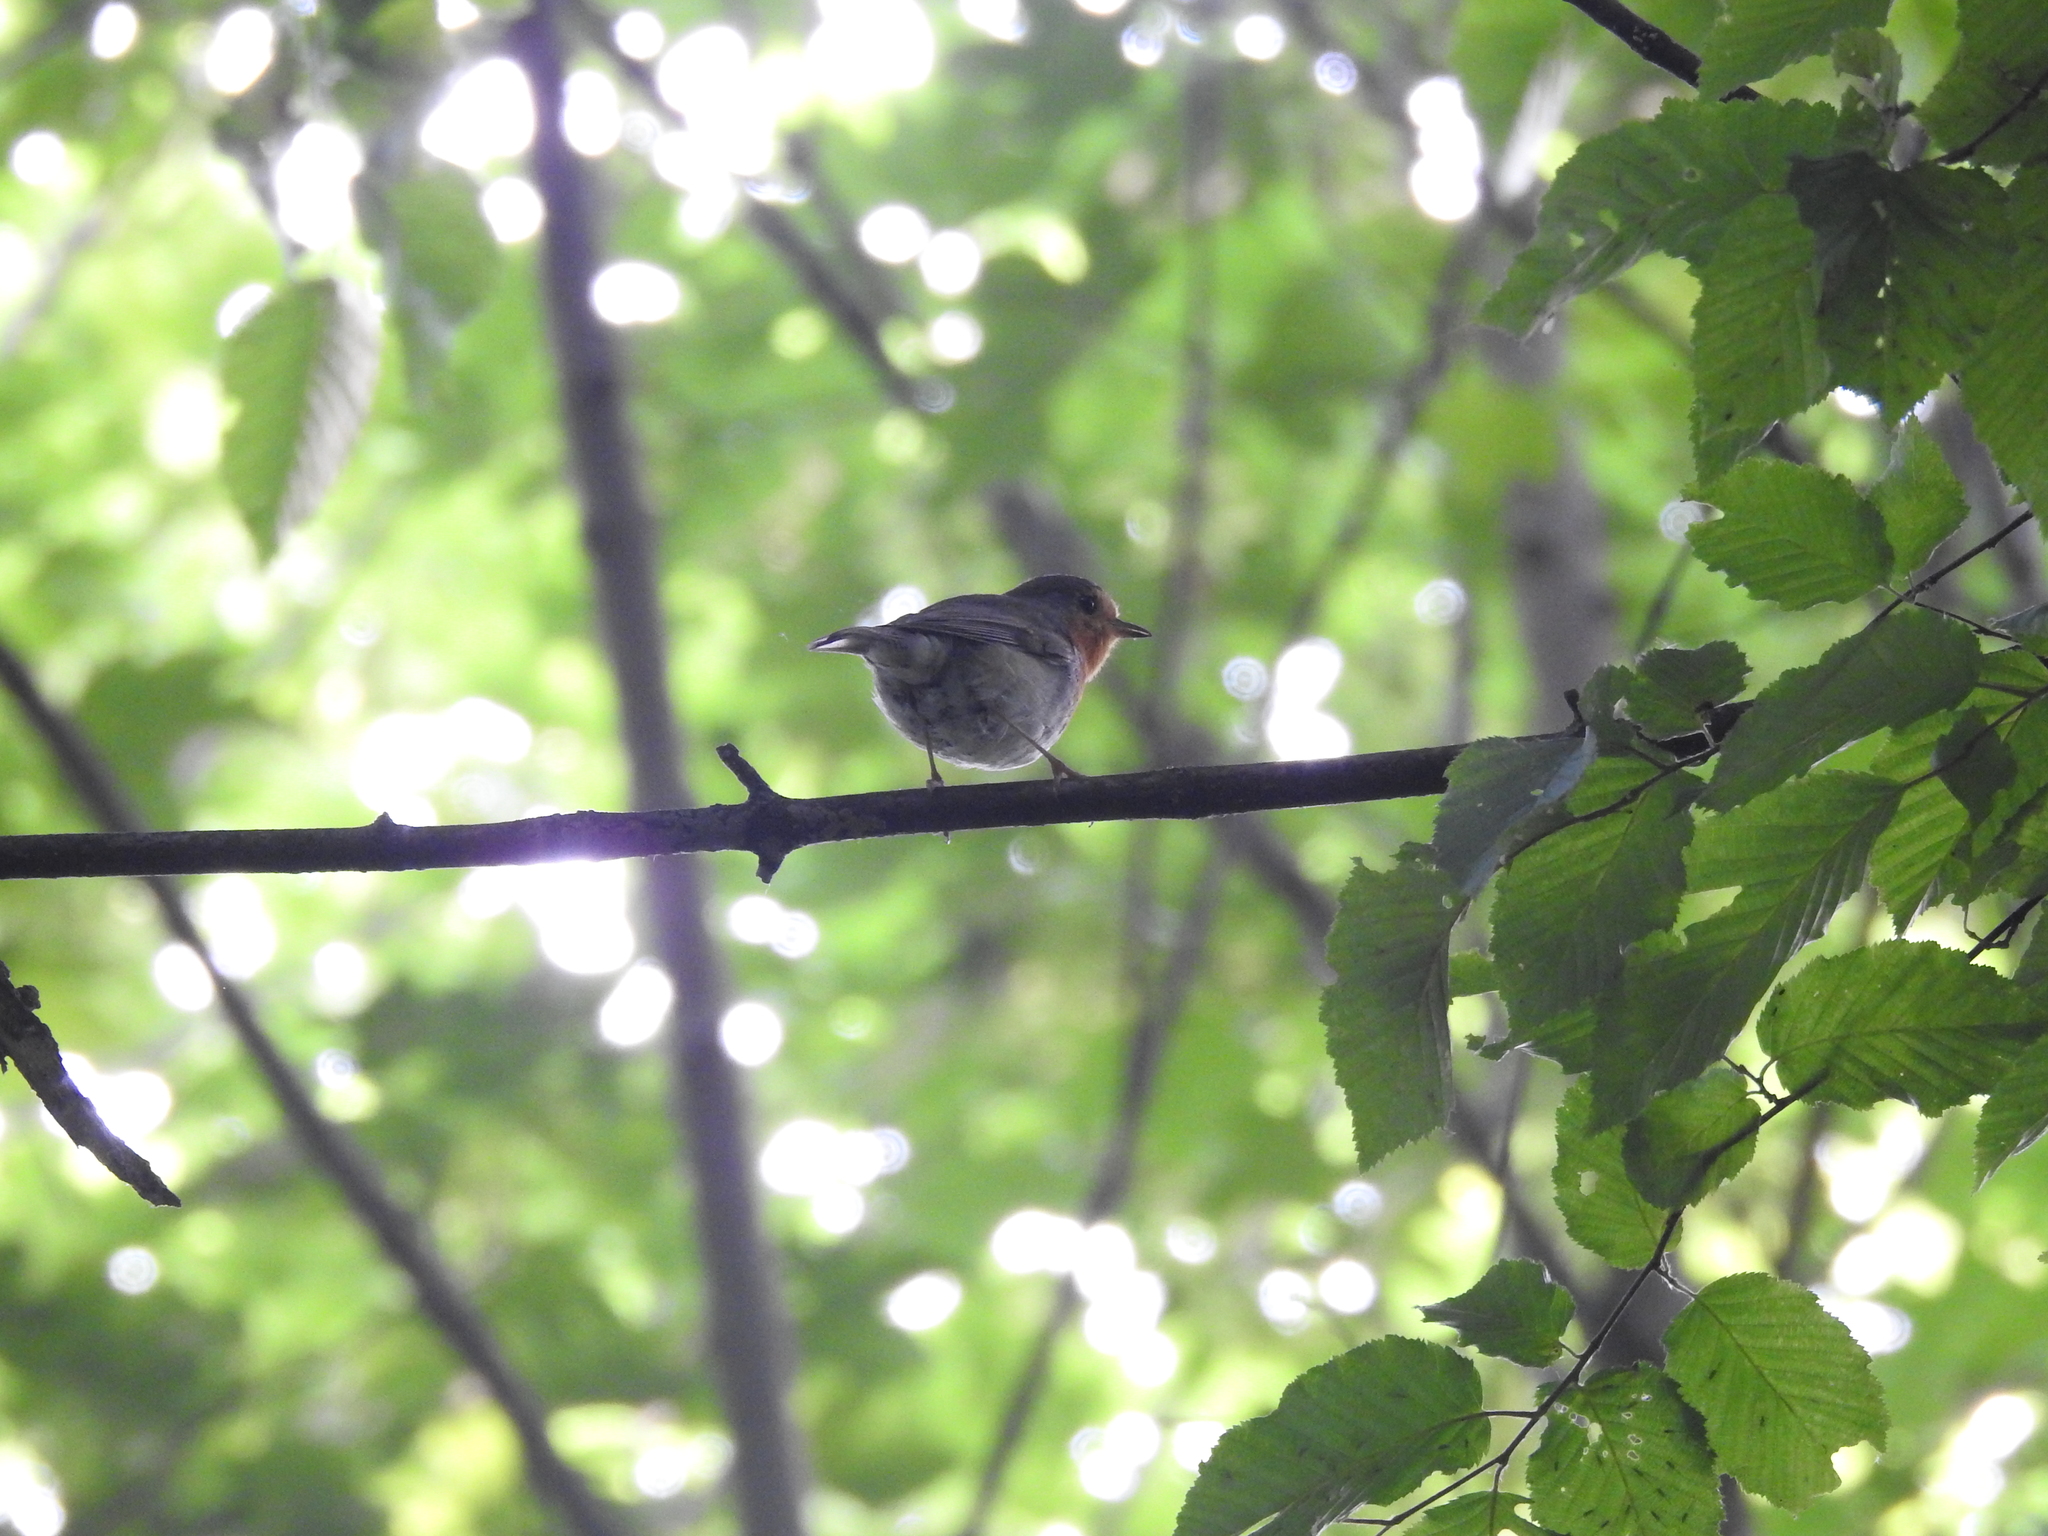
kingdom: Animalia
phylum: Chordata
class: Aves
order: Passeriformes
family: Muscicapidae
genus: Erithacus
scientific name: Erithacus rubecula
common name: European robin
